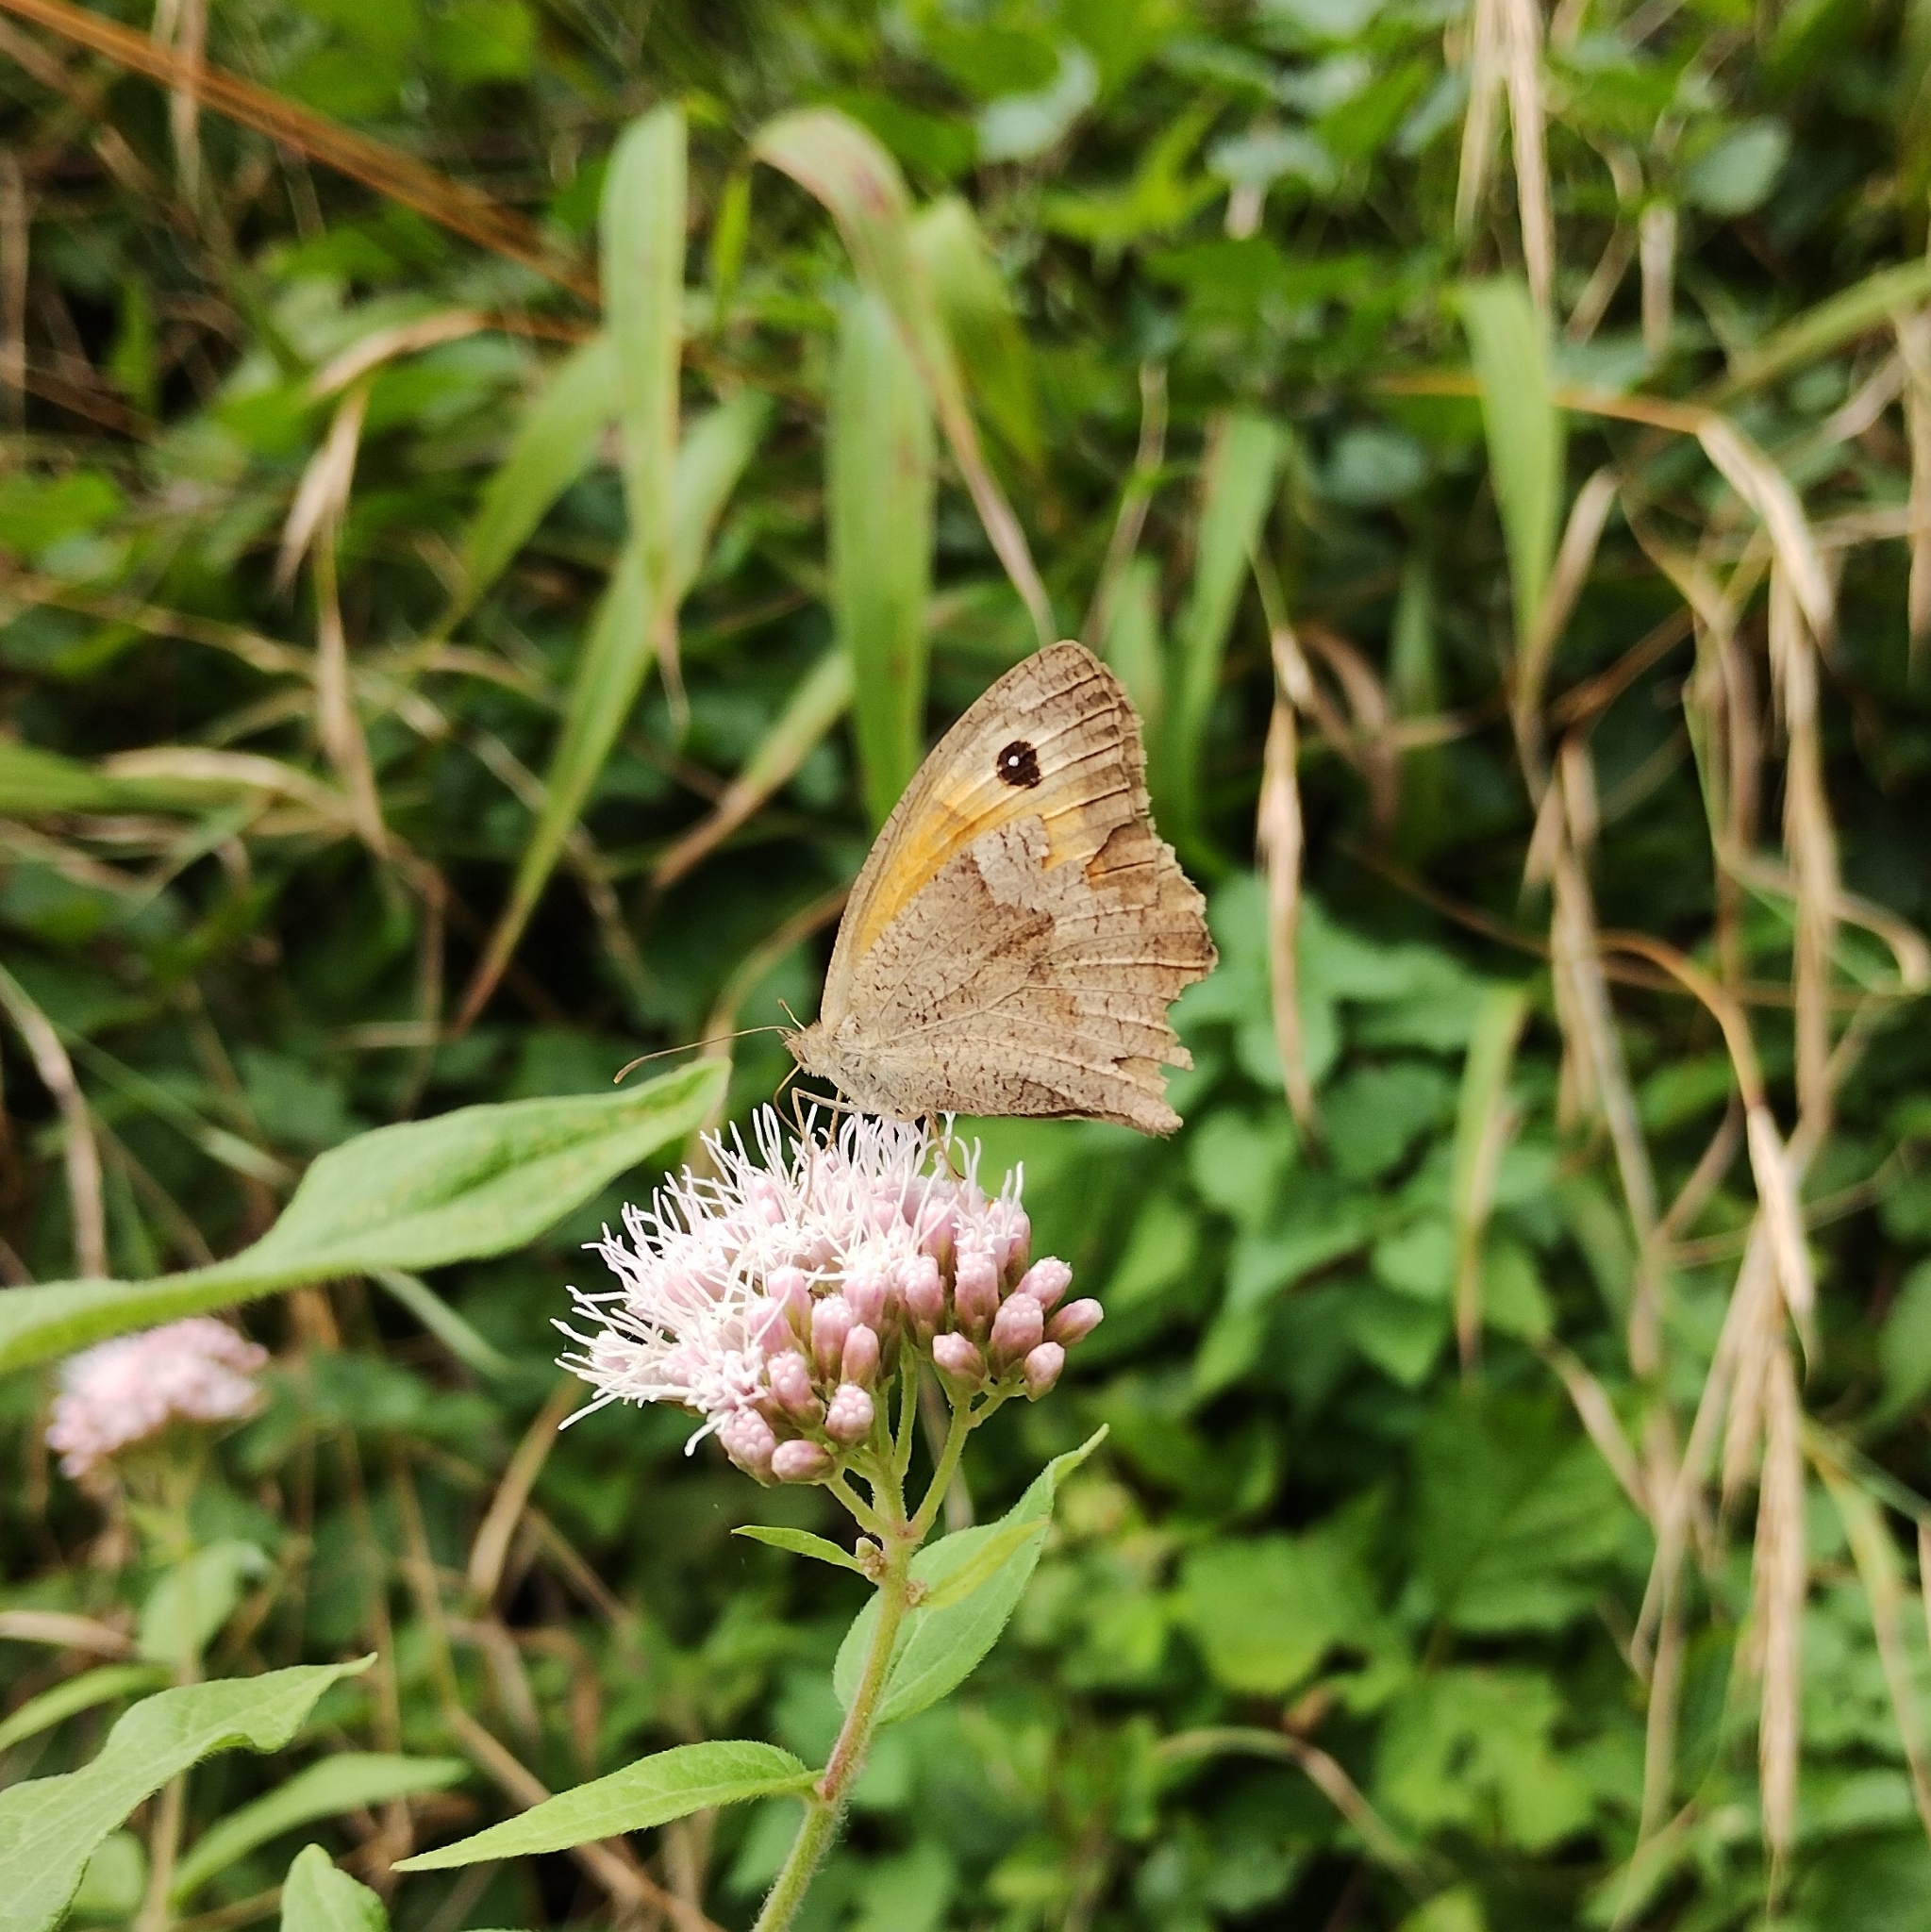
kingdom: Animalia
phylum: Arthropoda
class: Insecta
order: Lepidoptera
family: Nymphalidae
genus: Maniola
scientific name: Maniola jurtina
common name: Meadow brown
